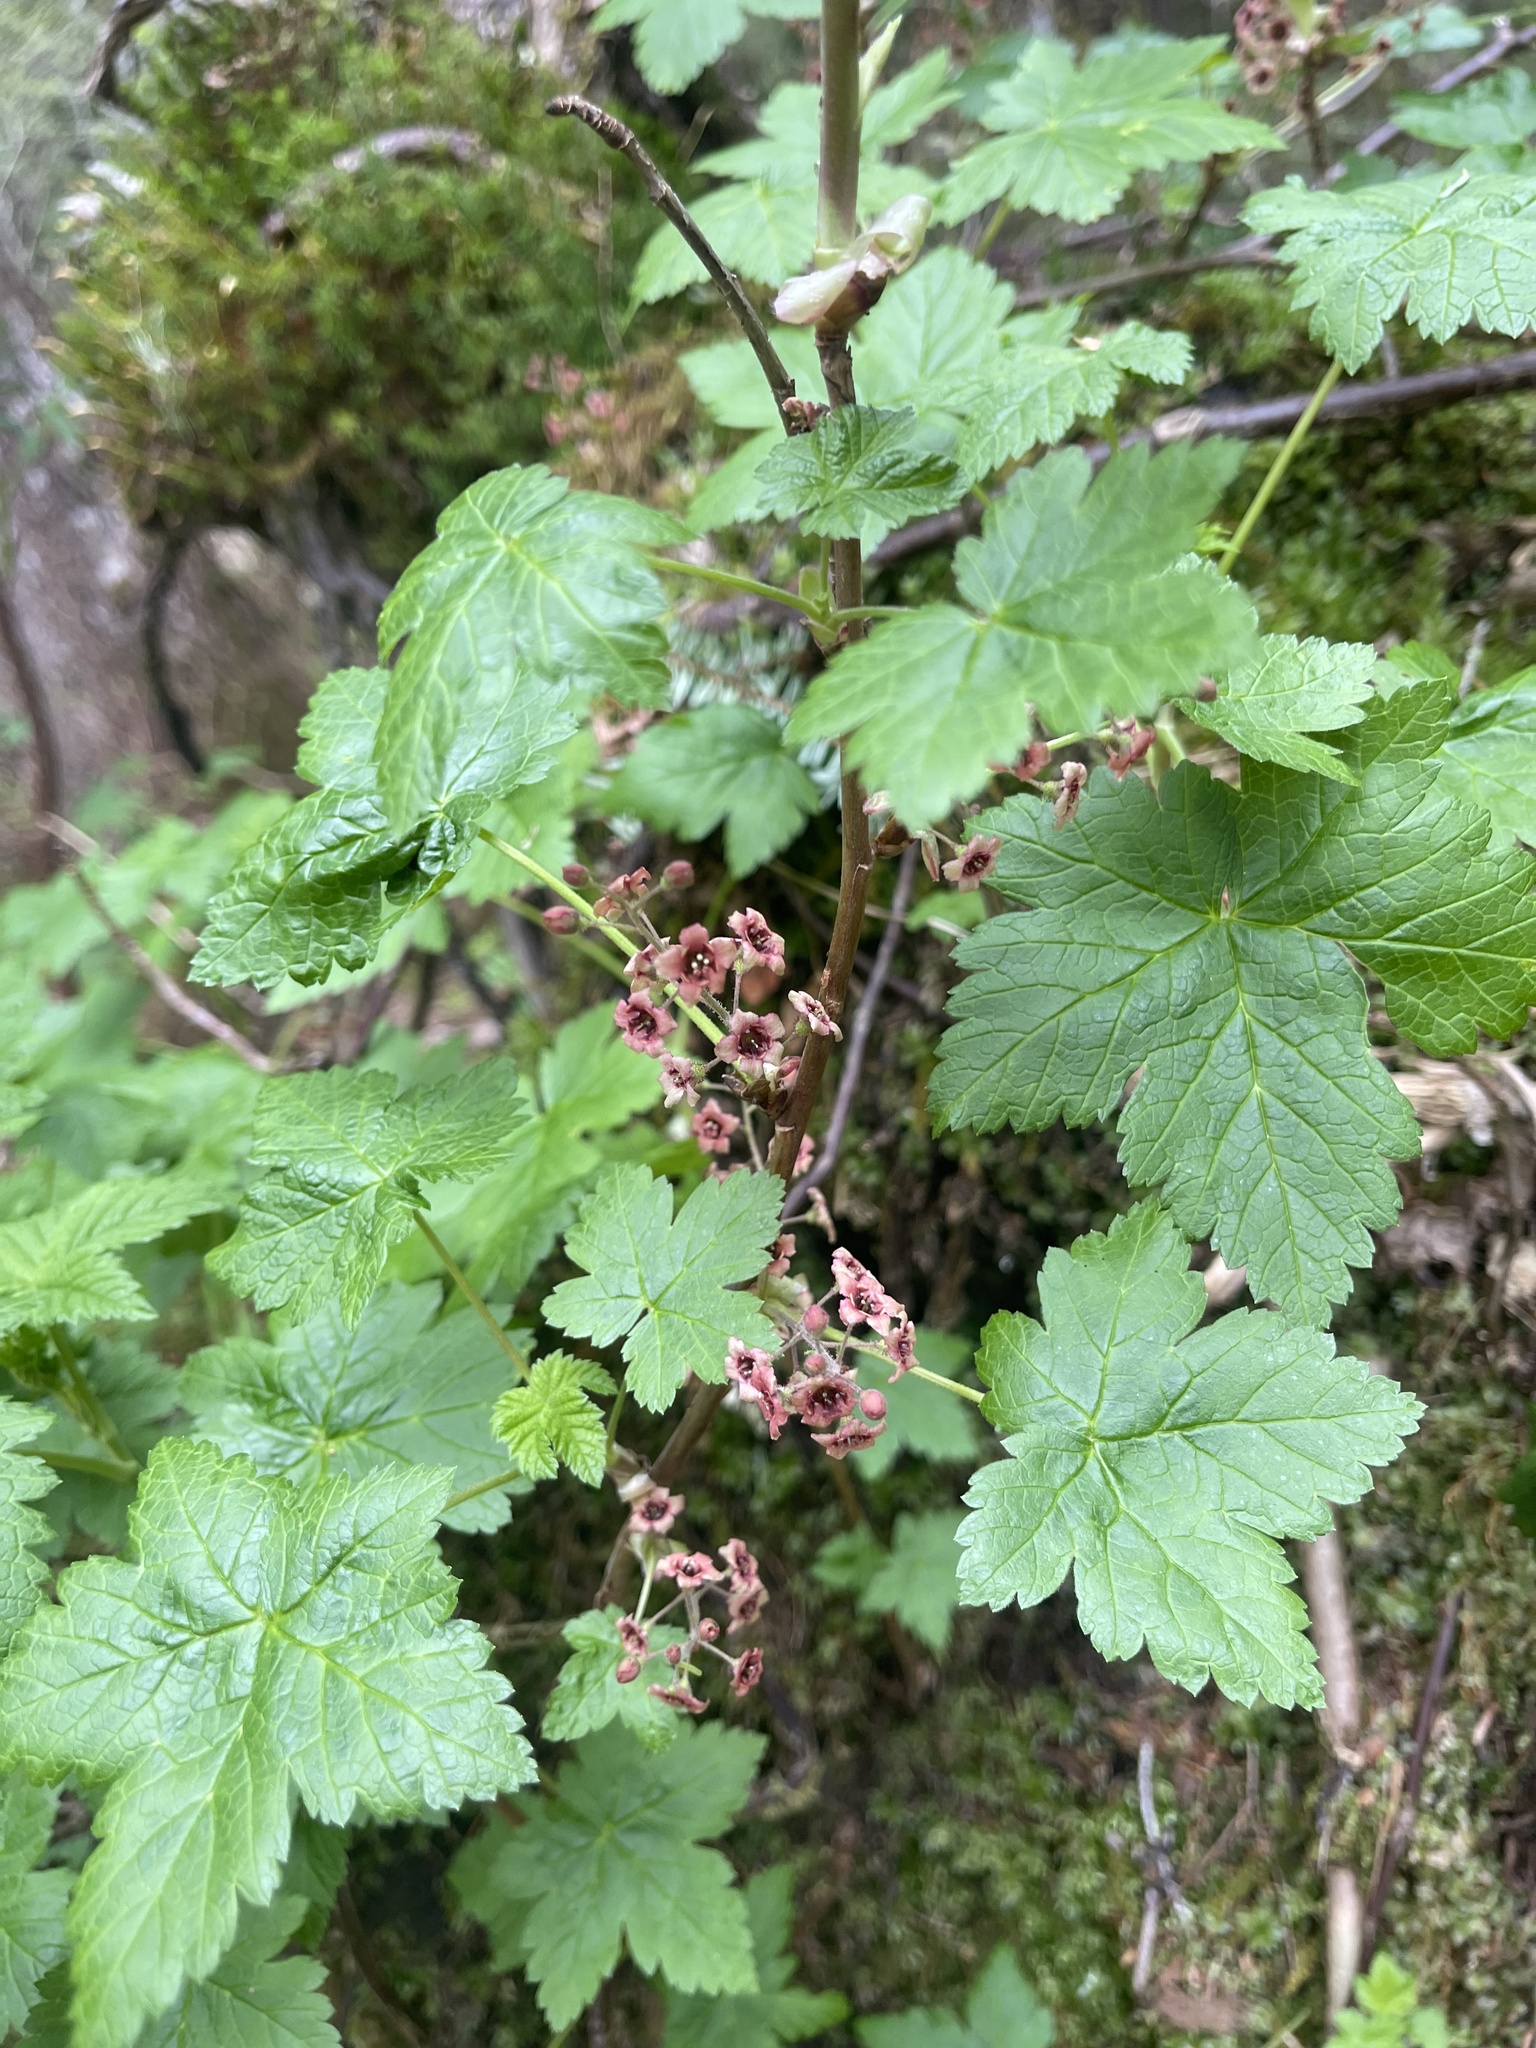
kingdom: Plantae
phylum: Tracheophyta
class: Magnoliopsida
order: Saxifragales
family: Grossulariaceae
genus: Ribes
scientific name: Ribes laxiflorum
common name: Spreading currant
